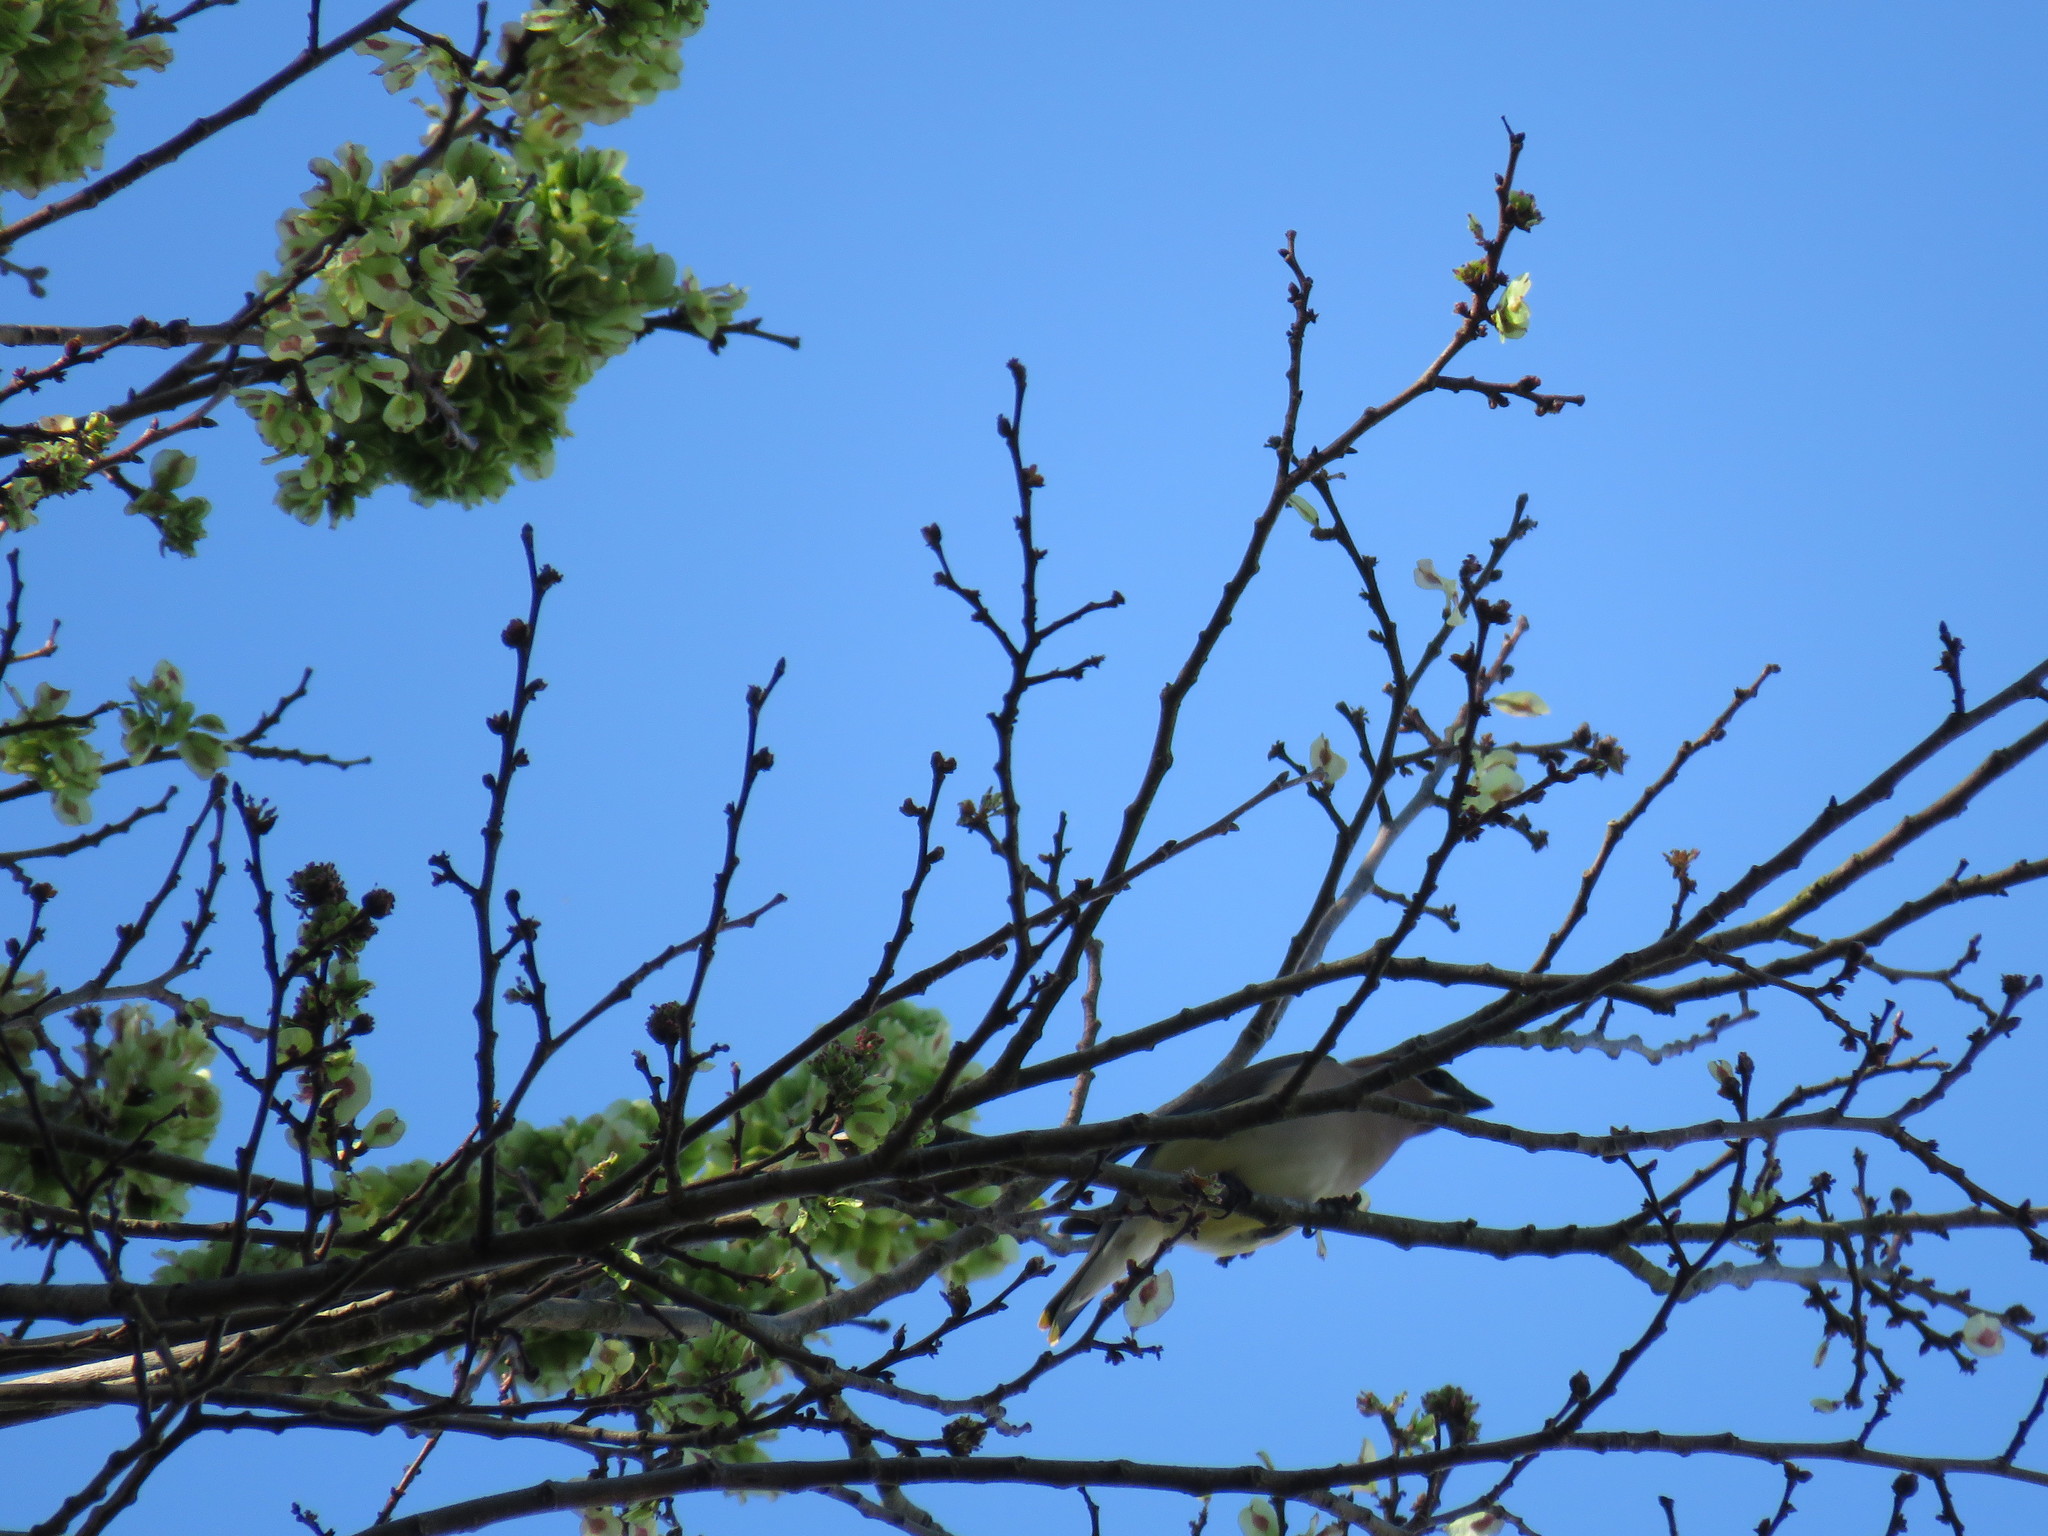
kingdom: Animalia
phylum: Chordata
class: Aves
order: Passeriformes
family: Bombycillidae
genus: Bombycilla
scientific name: Bombycilla cedrorum
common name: Cedar waxwing
